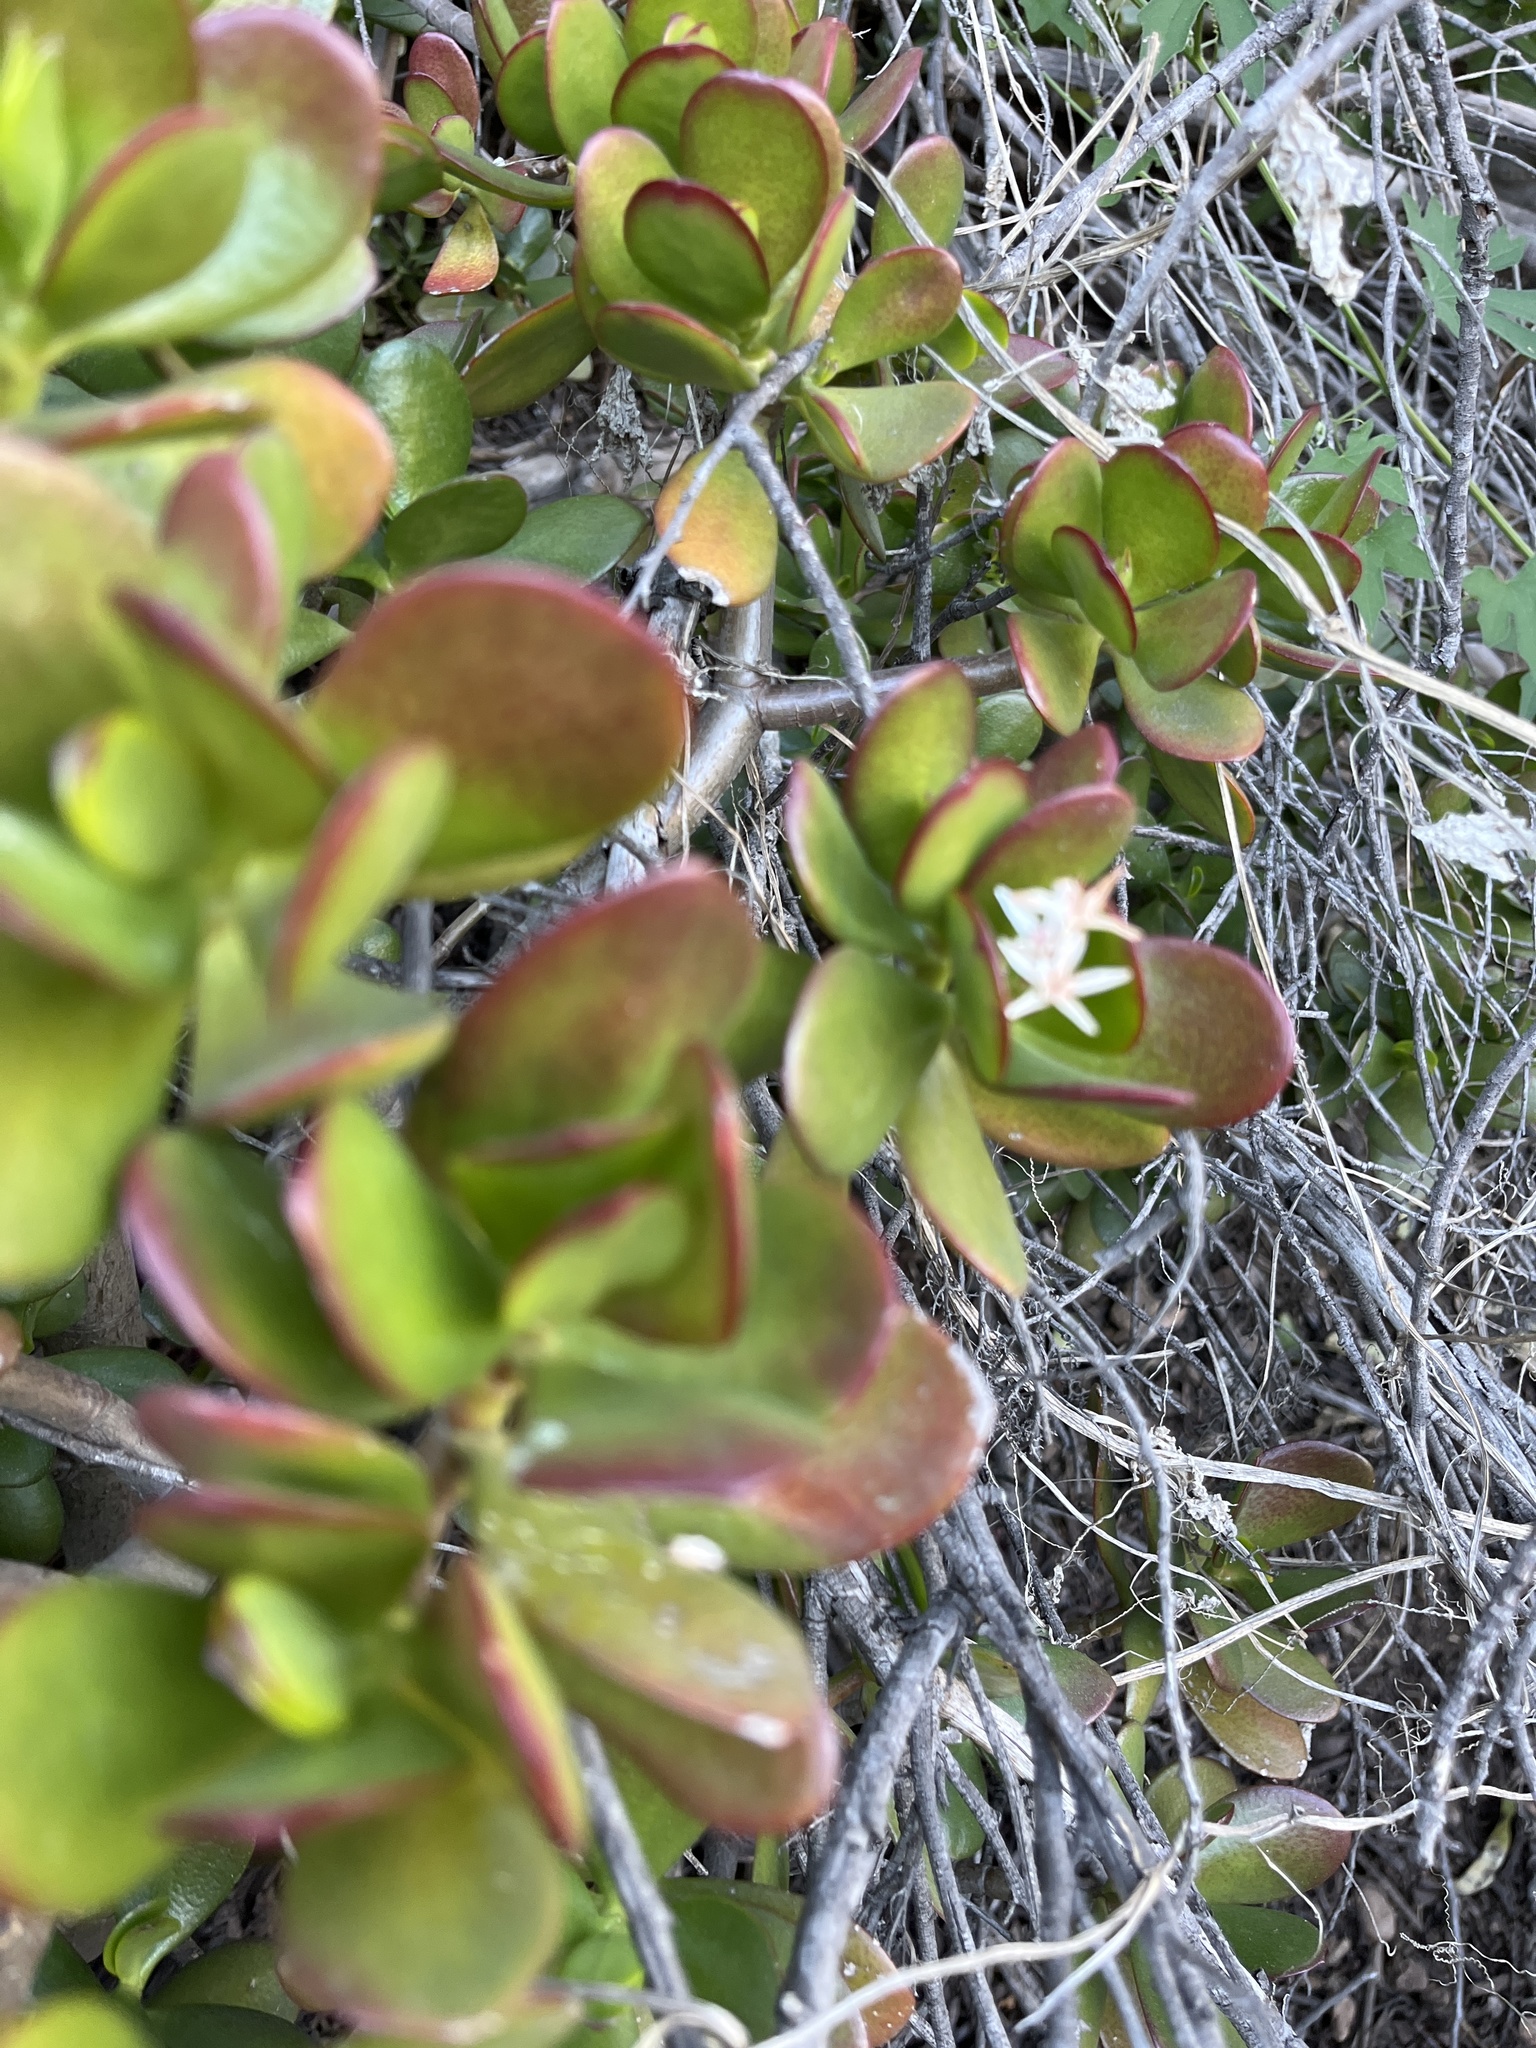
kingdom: Plantae
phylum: Tracheophyta
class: Magnoliopsida
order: Saxifragales
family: Crassulaceae
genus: Crassula
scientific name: Crassula ovata
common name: Jade plant
